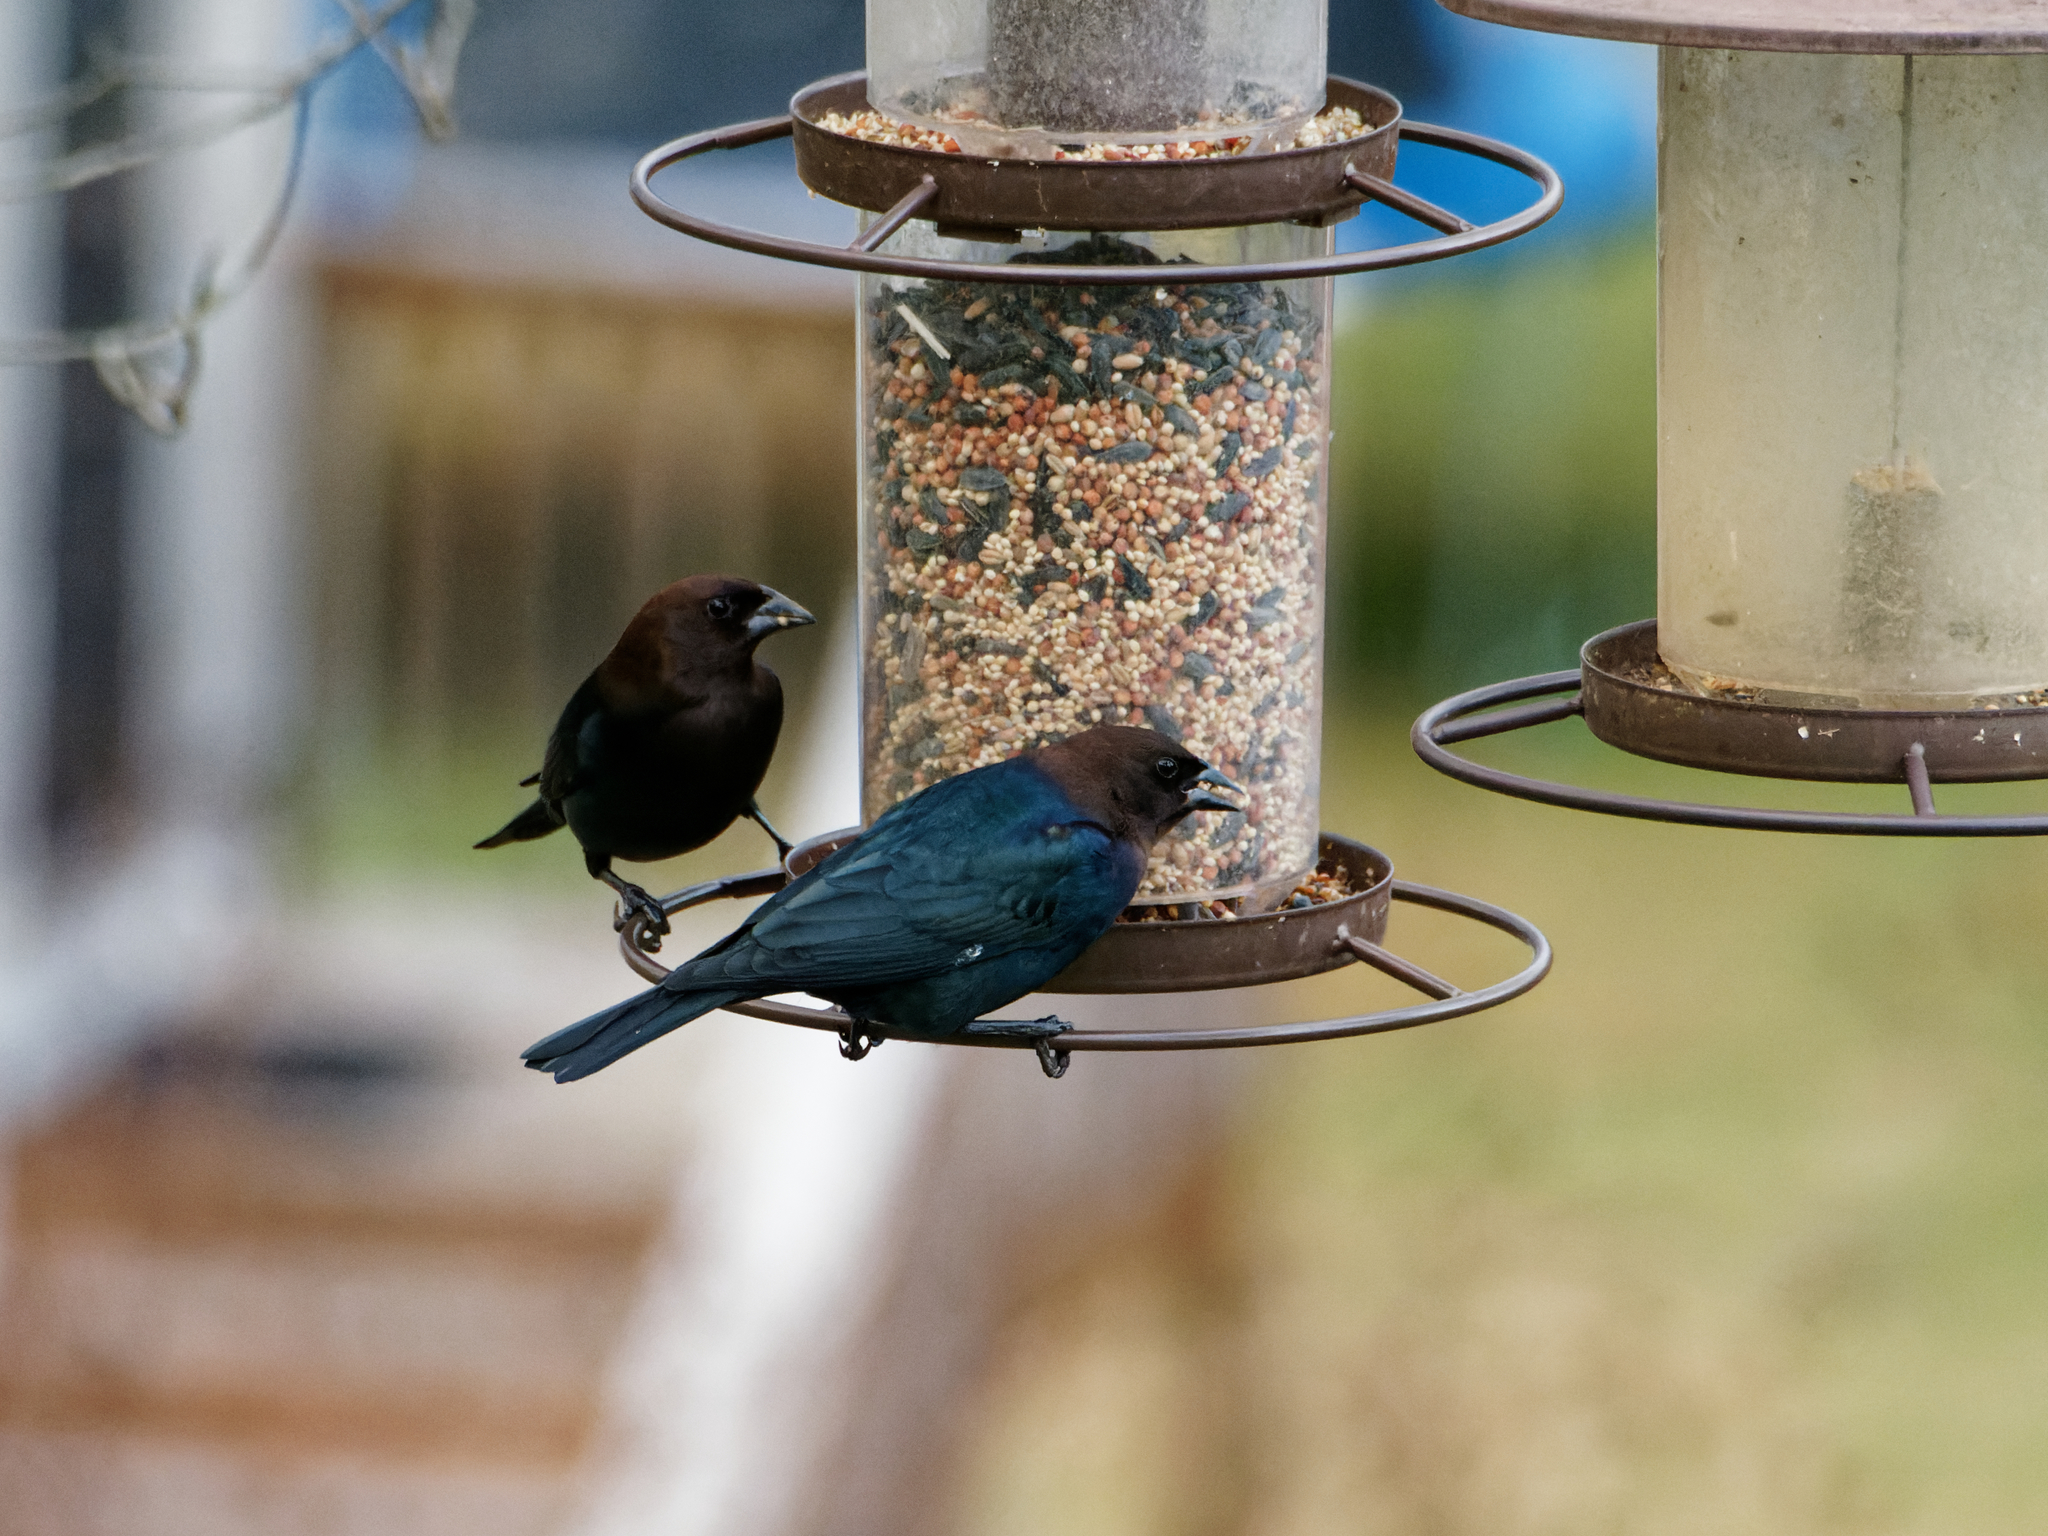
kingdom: Animalia
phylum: Chordata
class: Aves
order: Passeriformes
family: Icteridae
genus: Molothrus
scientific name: Molothrus ater
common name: Brown-headed cowbird
